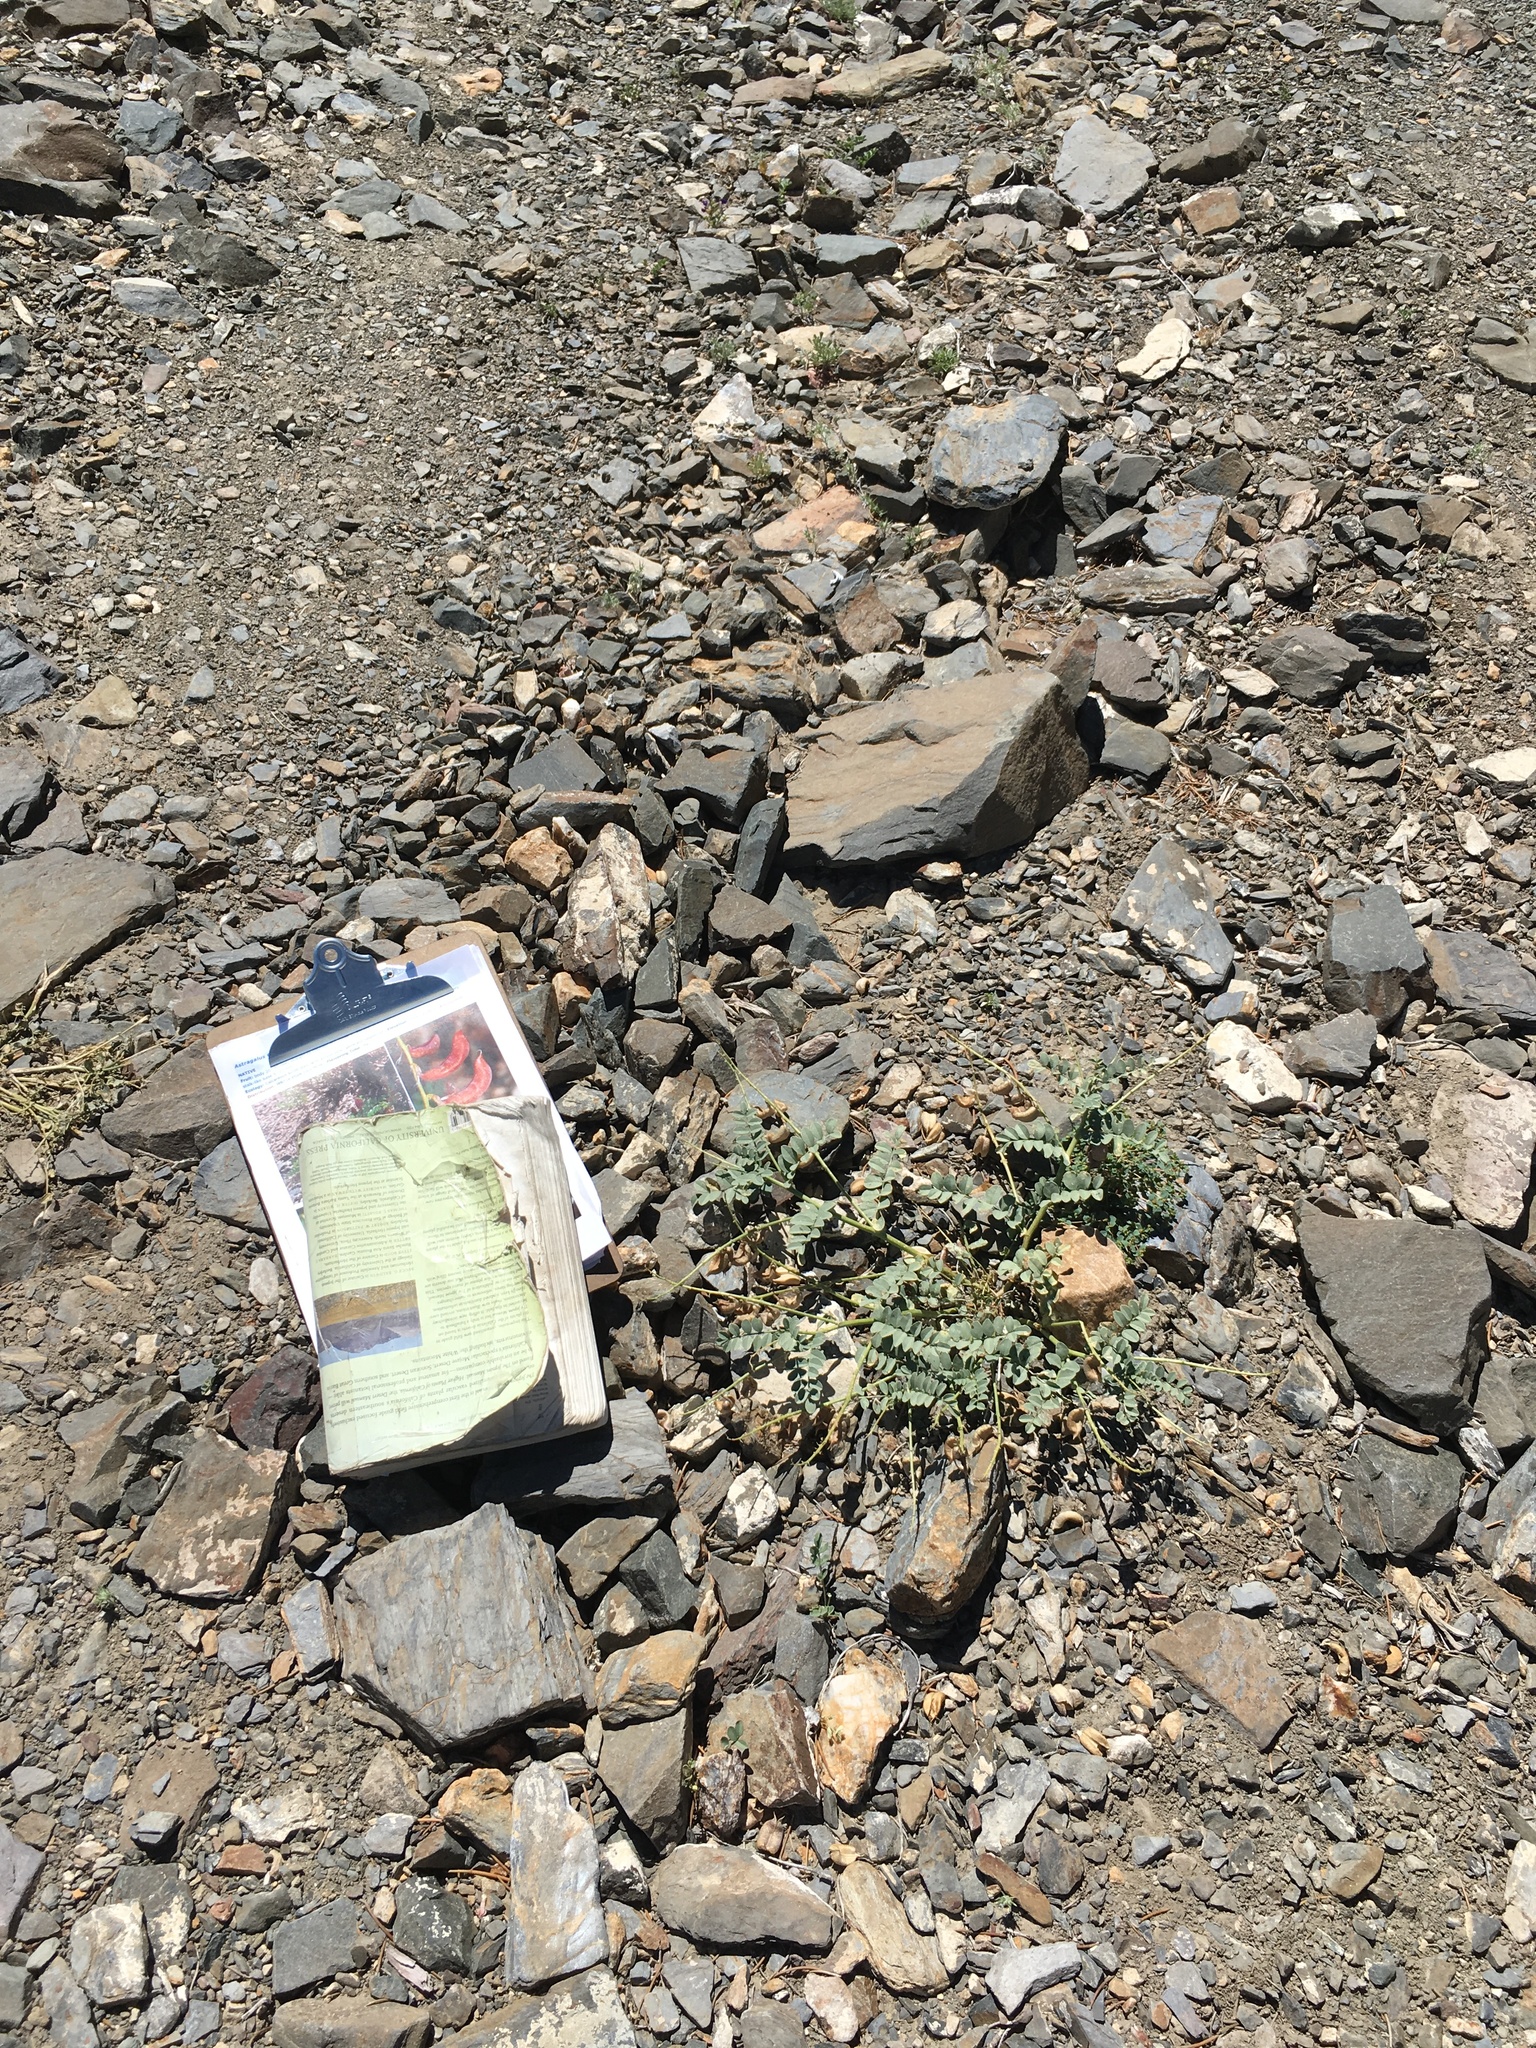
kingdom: Plantae
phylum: Tracheophyta
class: Magnoliopsida
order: Fabales
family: Fabaceae
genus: Astragalus
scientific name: Astragalus cimae
